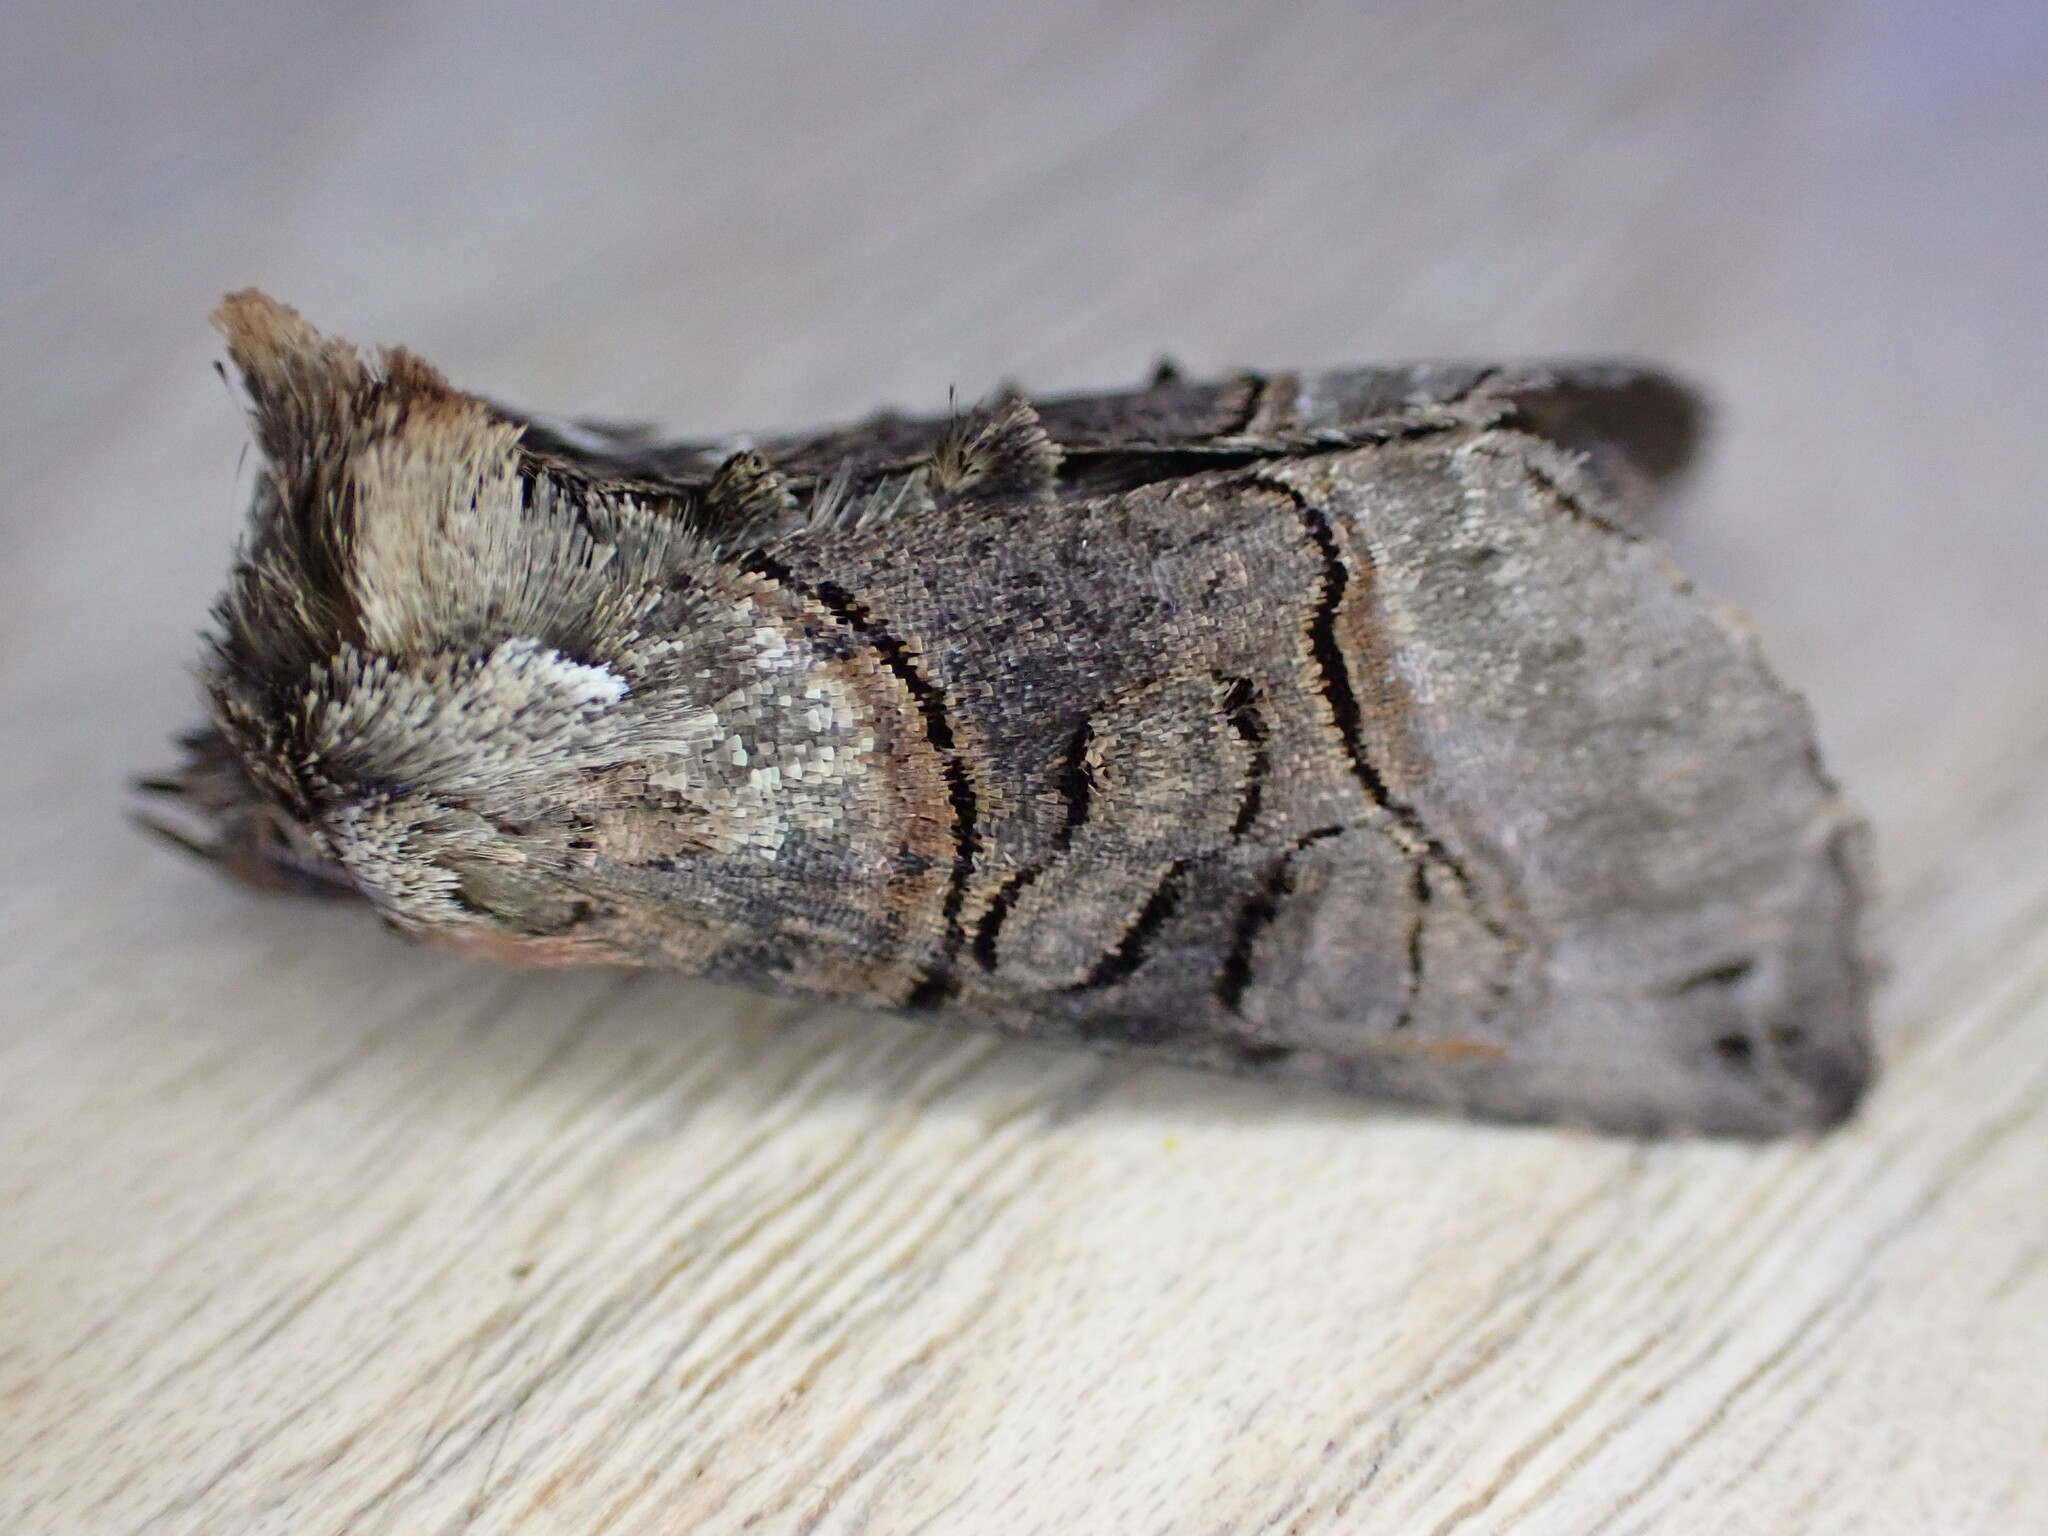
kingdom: Animalia
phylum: Arthropoda
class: Insecta
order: Lepidoptera
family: Noctuidae
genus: Abrostola
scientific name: Abrostola tripartita
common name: Spectacle
